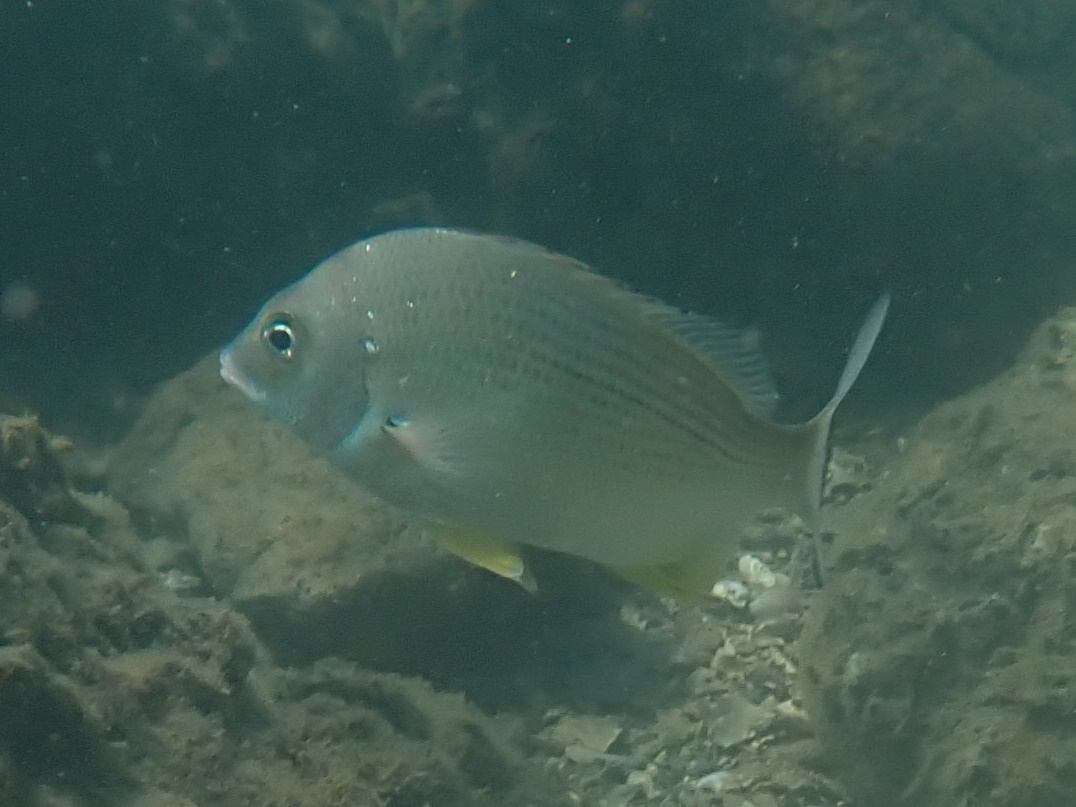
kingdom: Animalia
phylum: Chordata
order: Perciformes
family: Sparidae
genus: Acanthopagrus
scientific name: Acanthopagrus australis
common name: Surf bream
